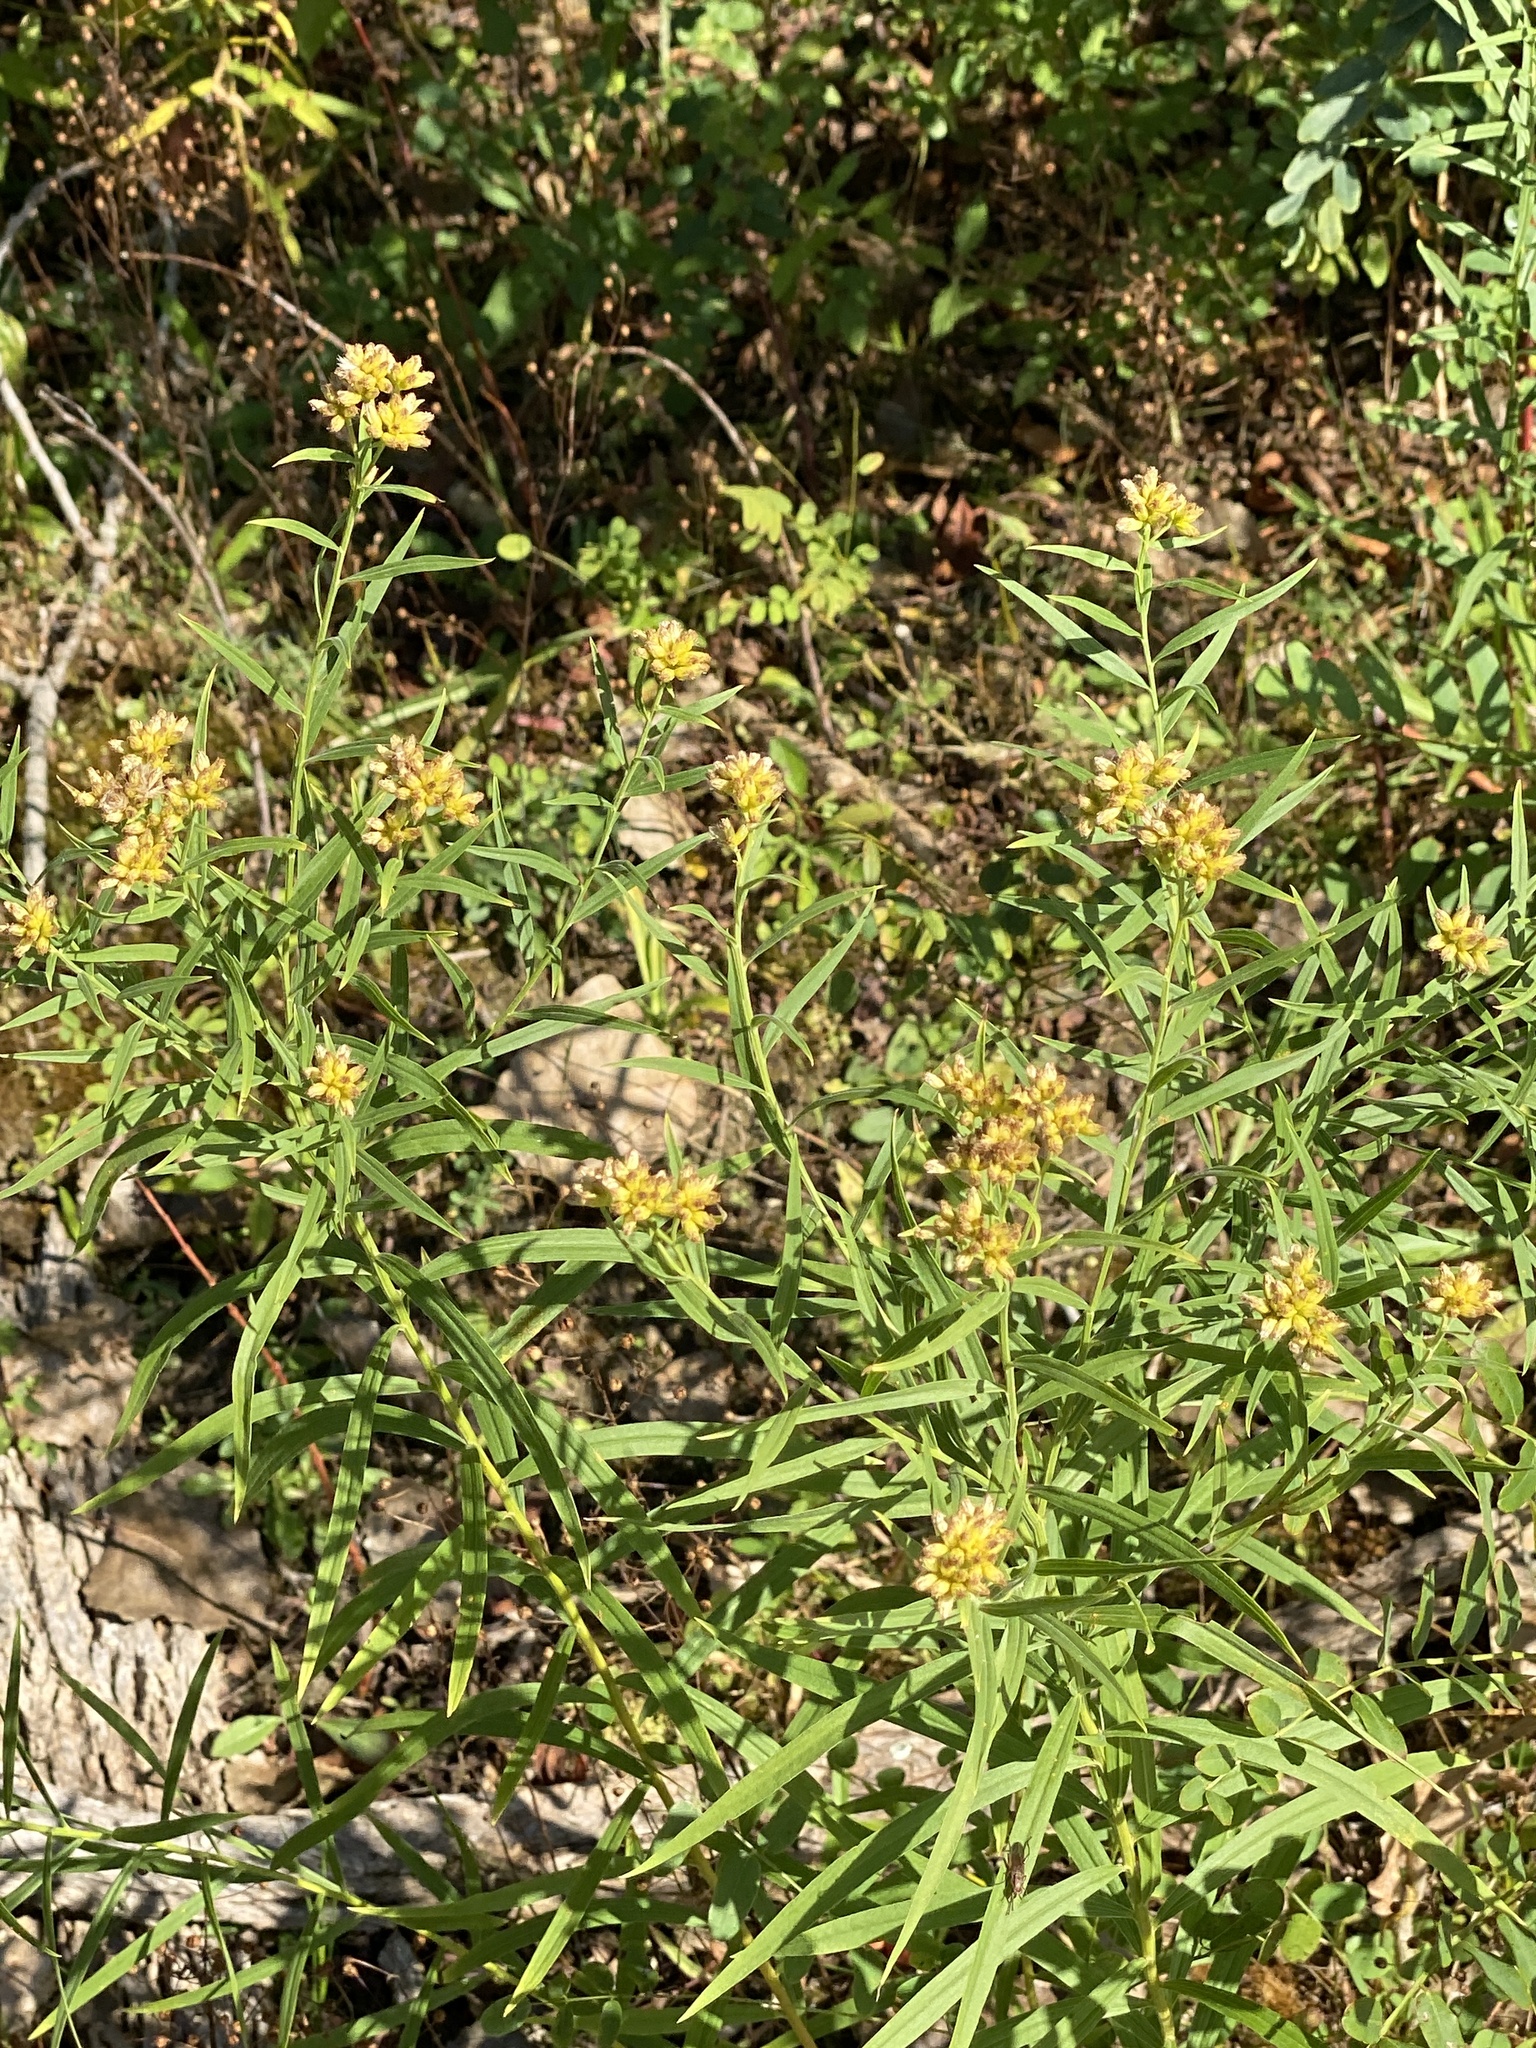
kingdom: Plantae
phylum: Tracheophyta
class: Magnoliopsida
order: Asterales
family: Asteraceae
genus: Euthamia
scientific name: Euthamia graminifolia
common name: Common goldentop
